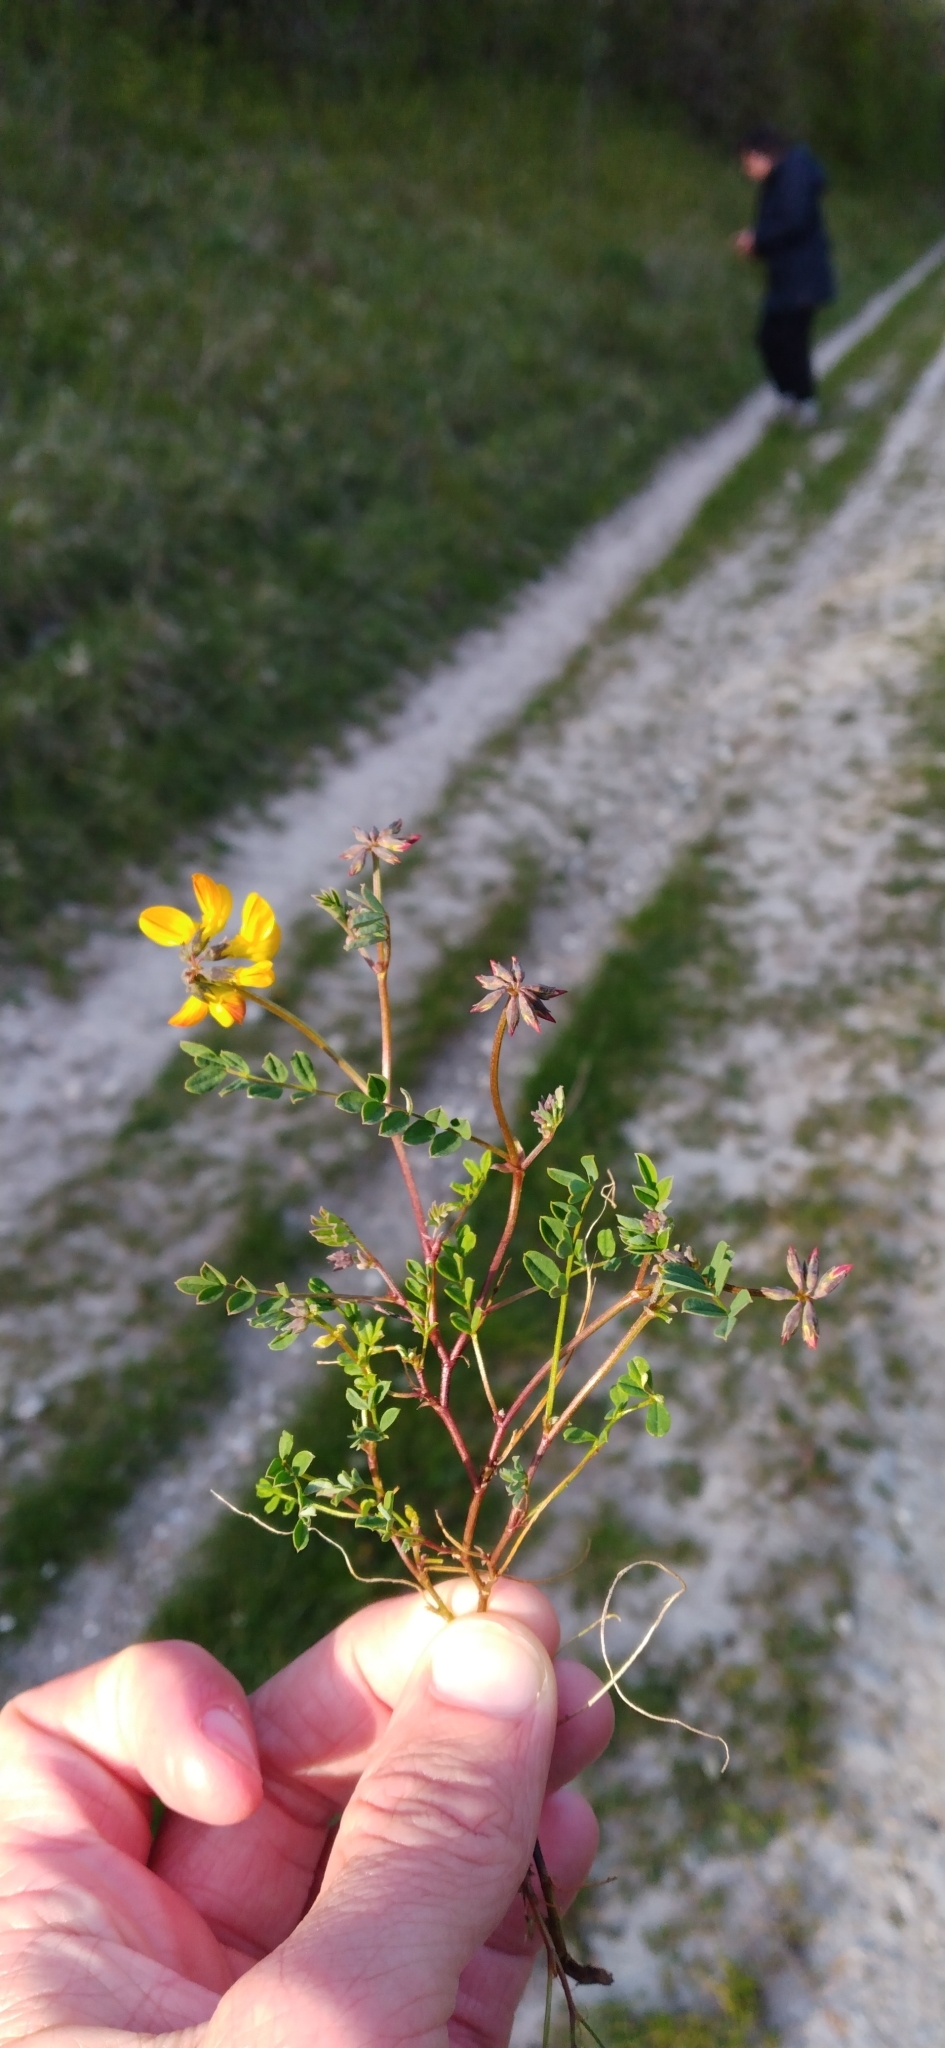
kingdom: Plantae
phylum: Tracheophyta
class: Magnoliopsida
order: Fabales
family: Fabaceae
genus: Hippocrepis
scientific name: Hippocrepis comosa
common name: Horseshoe vetch
